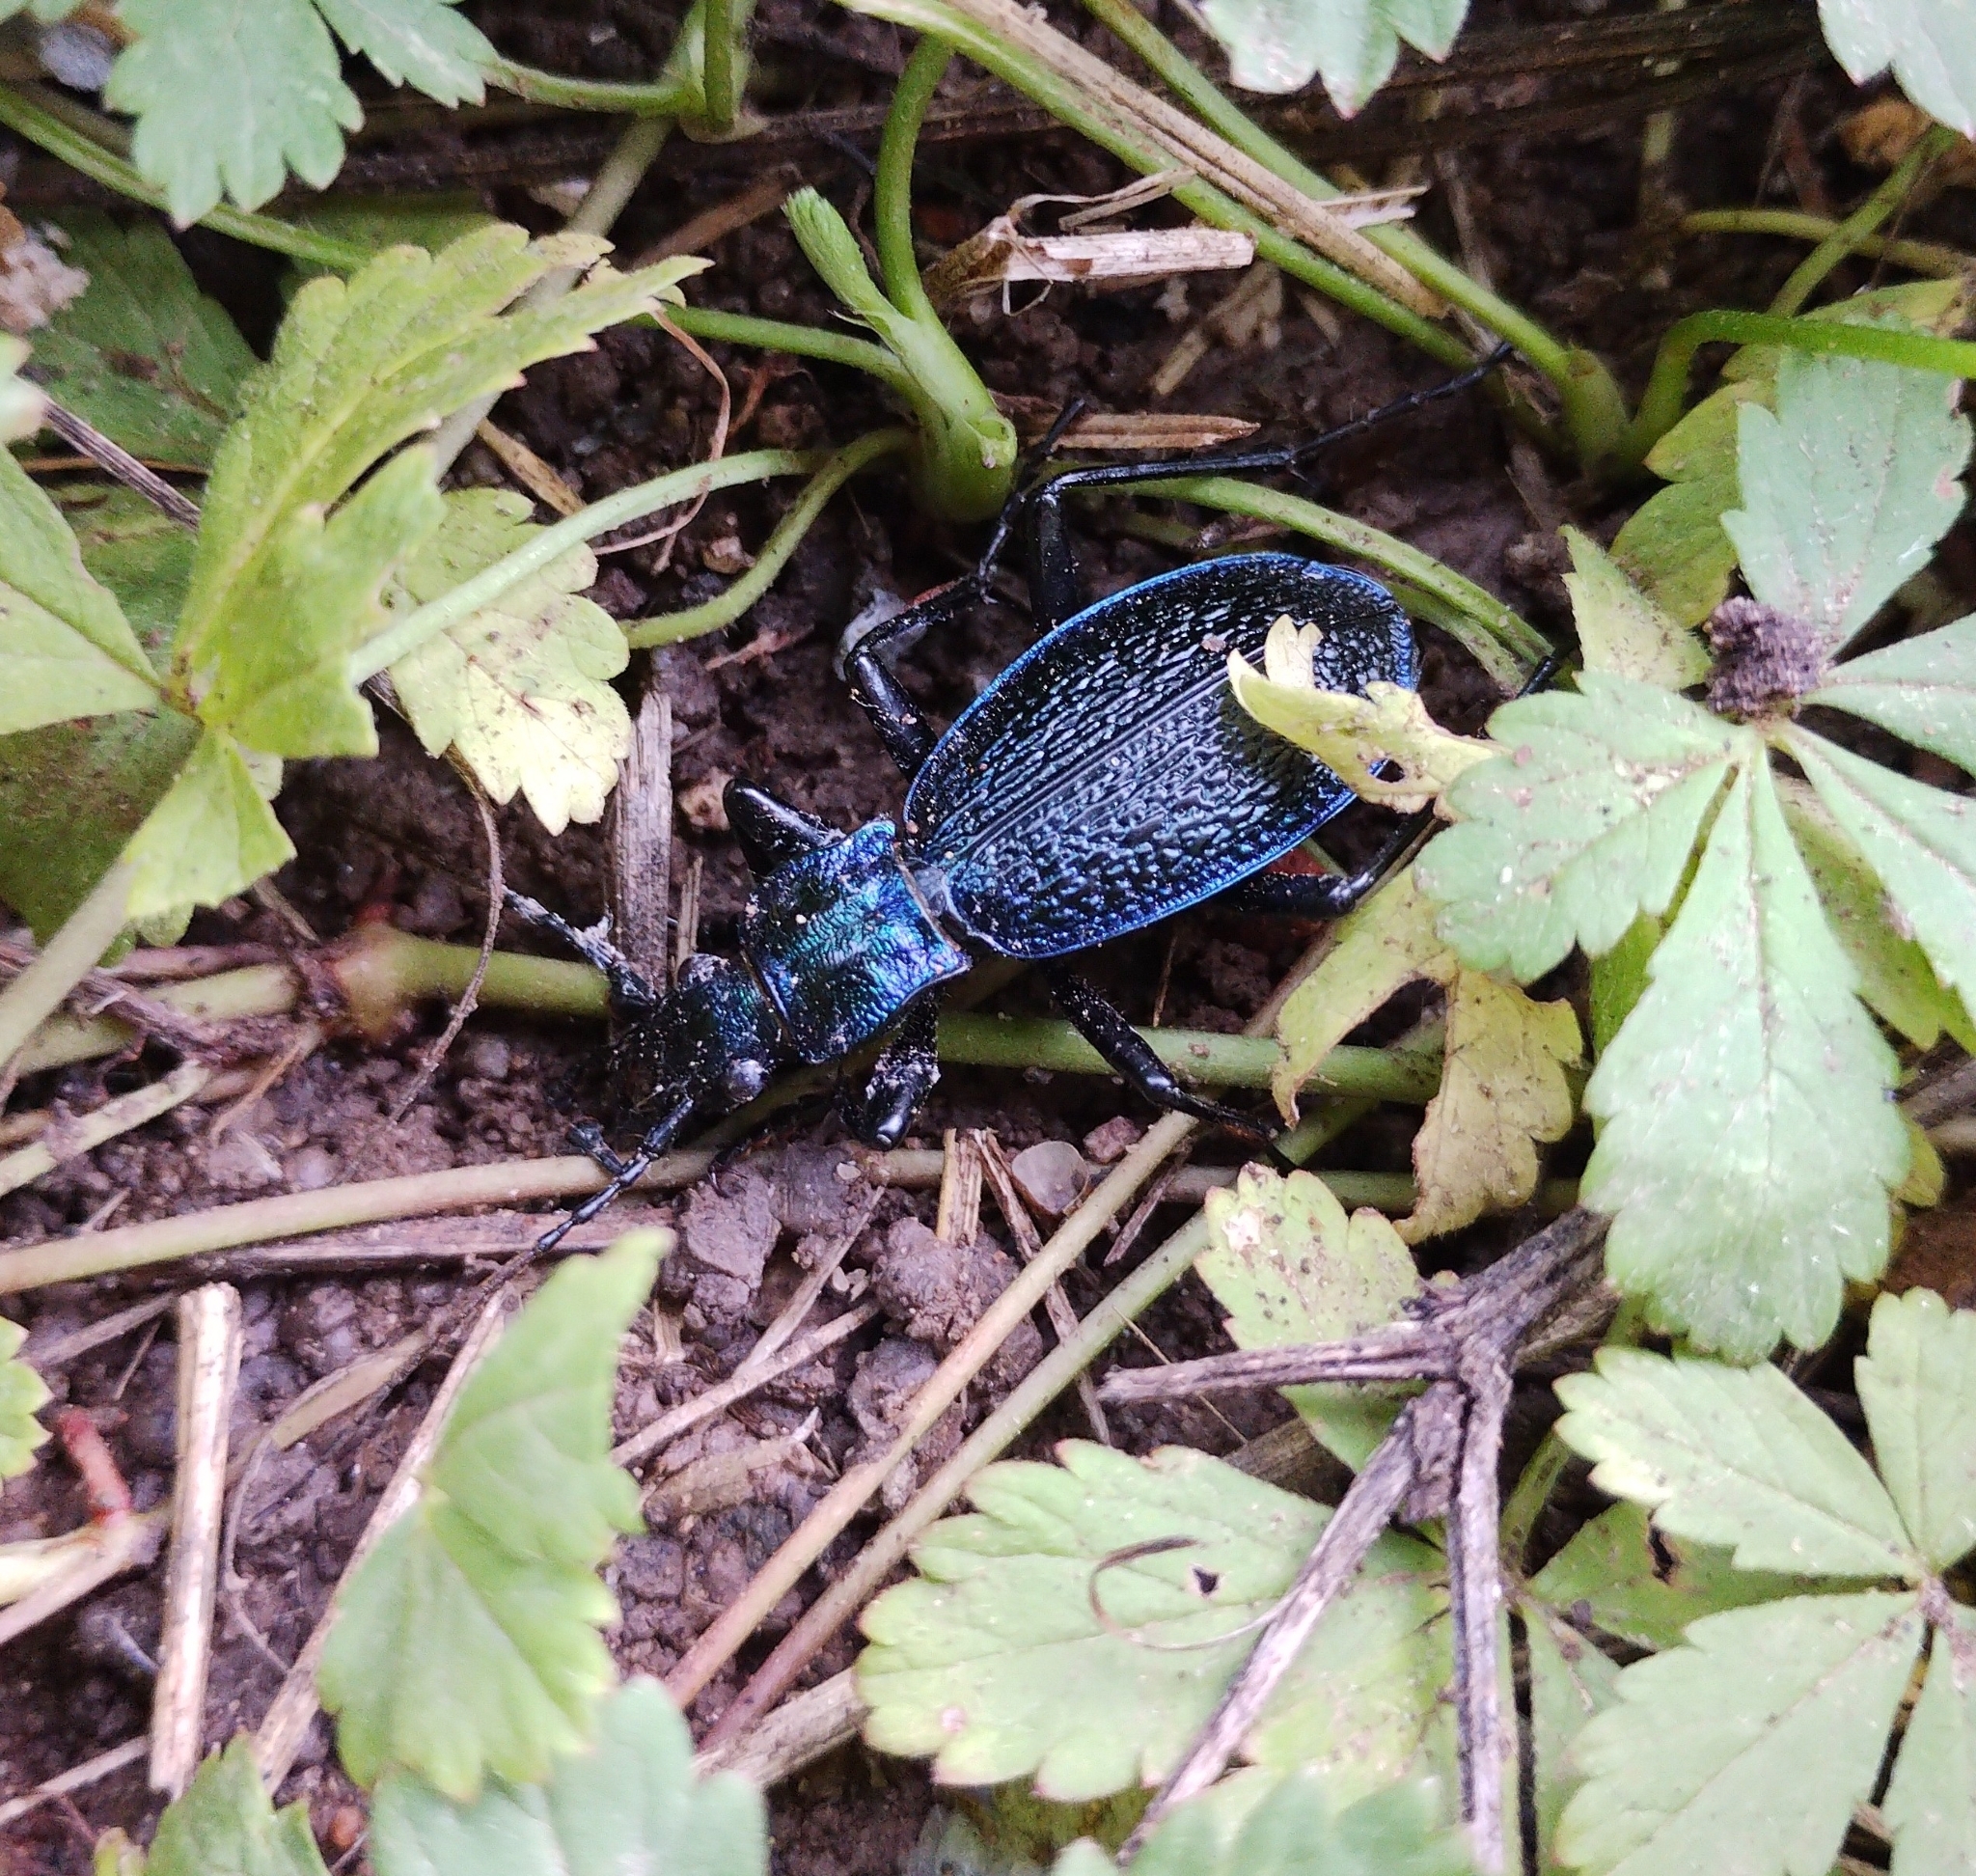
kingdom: Animalia
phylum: Arthropoda
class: Insecta
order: Coleoptera
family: Carabidae
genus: Carabus
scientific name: Carabus intricatus
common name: Blue ground beetle
